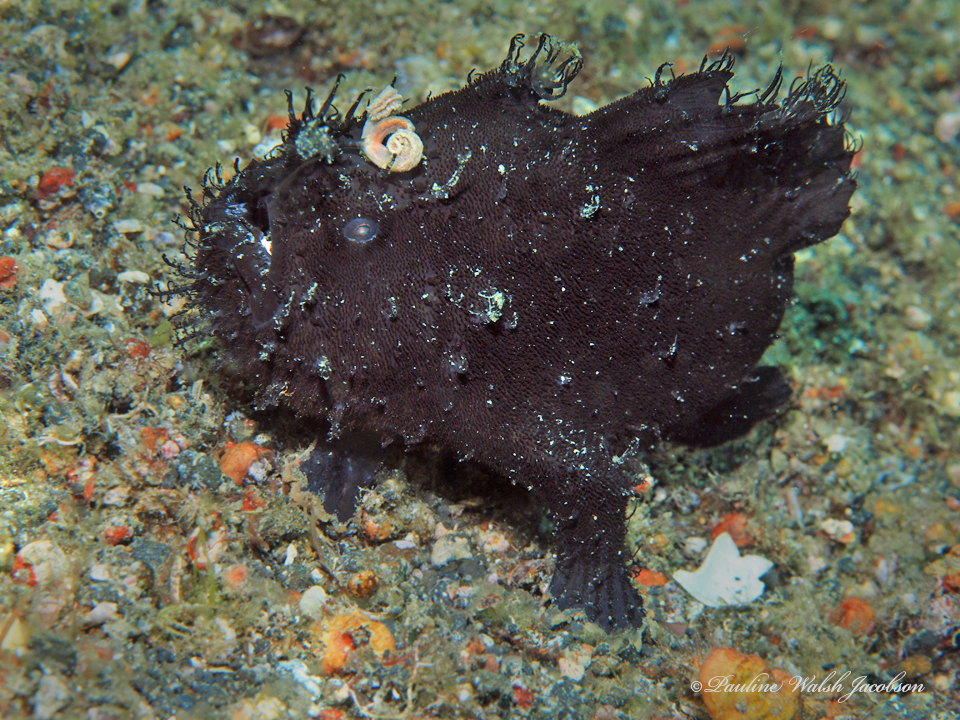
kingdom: Animalia
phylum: Chordata
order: Lophiiformes
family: Antennariidae
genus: Antennarius
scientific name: Antennarius striatus
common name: Striated frogfish
